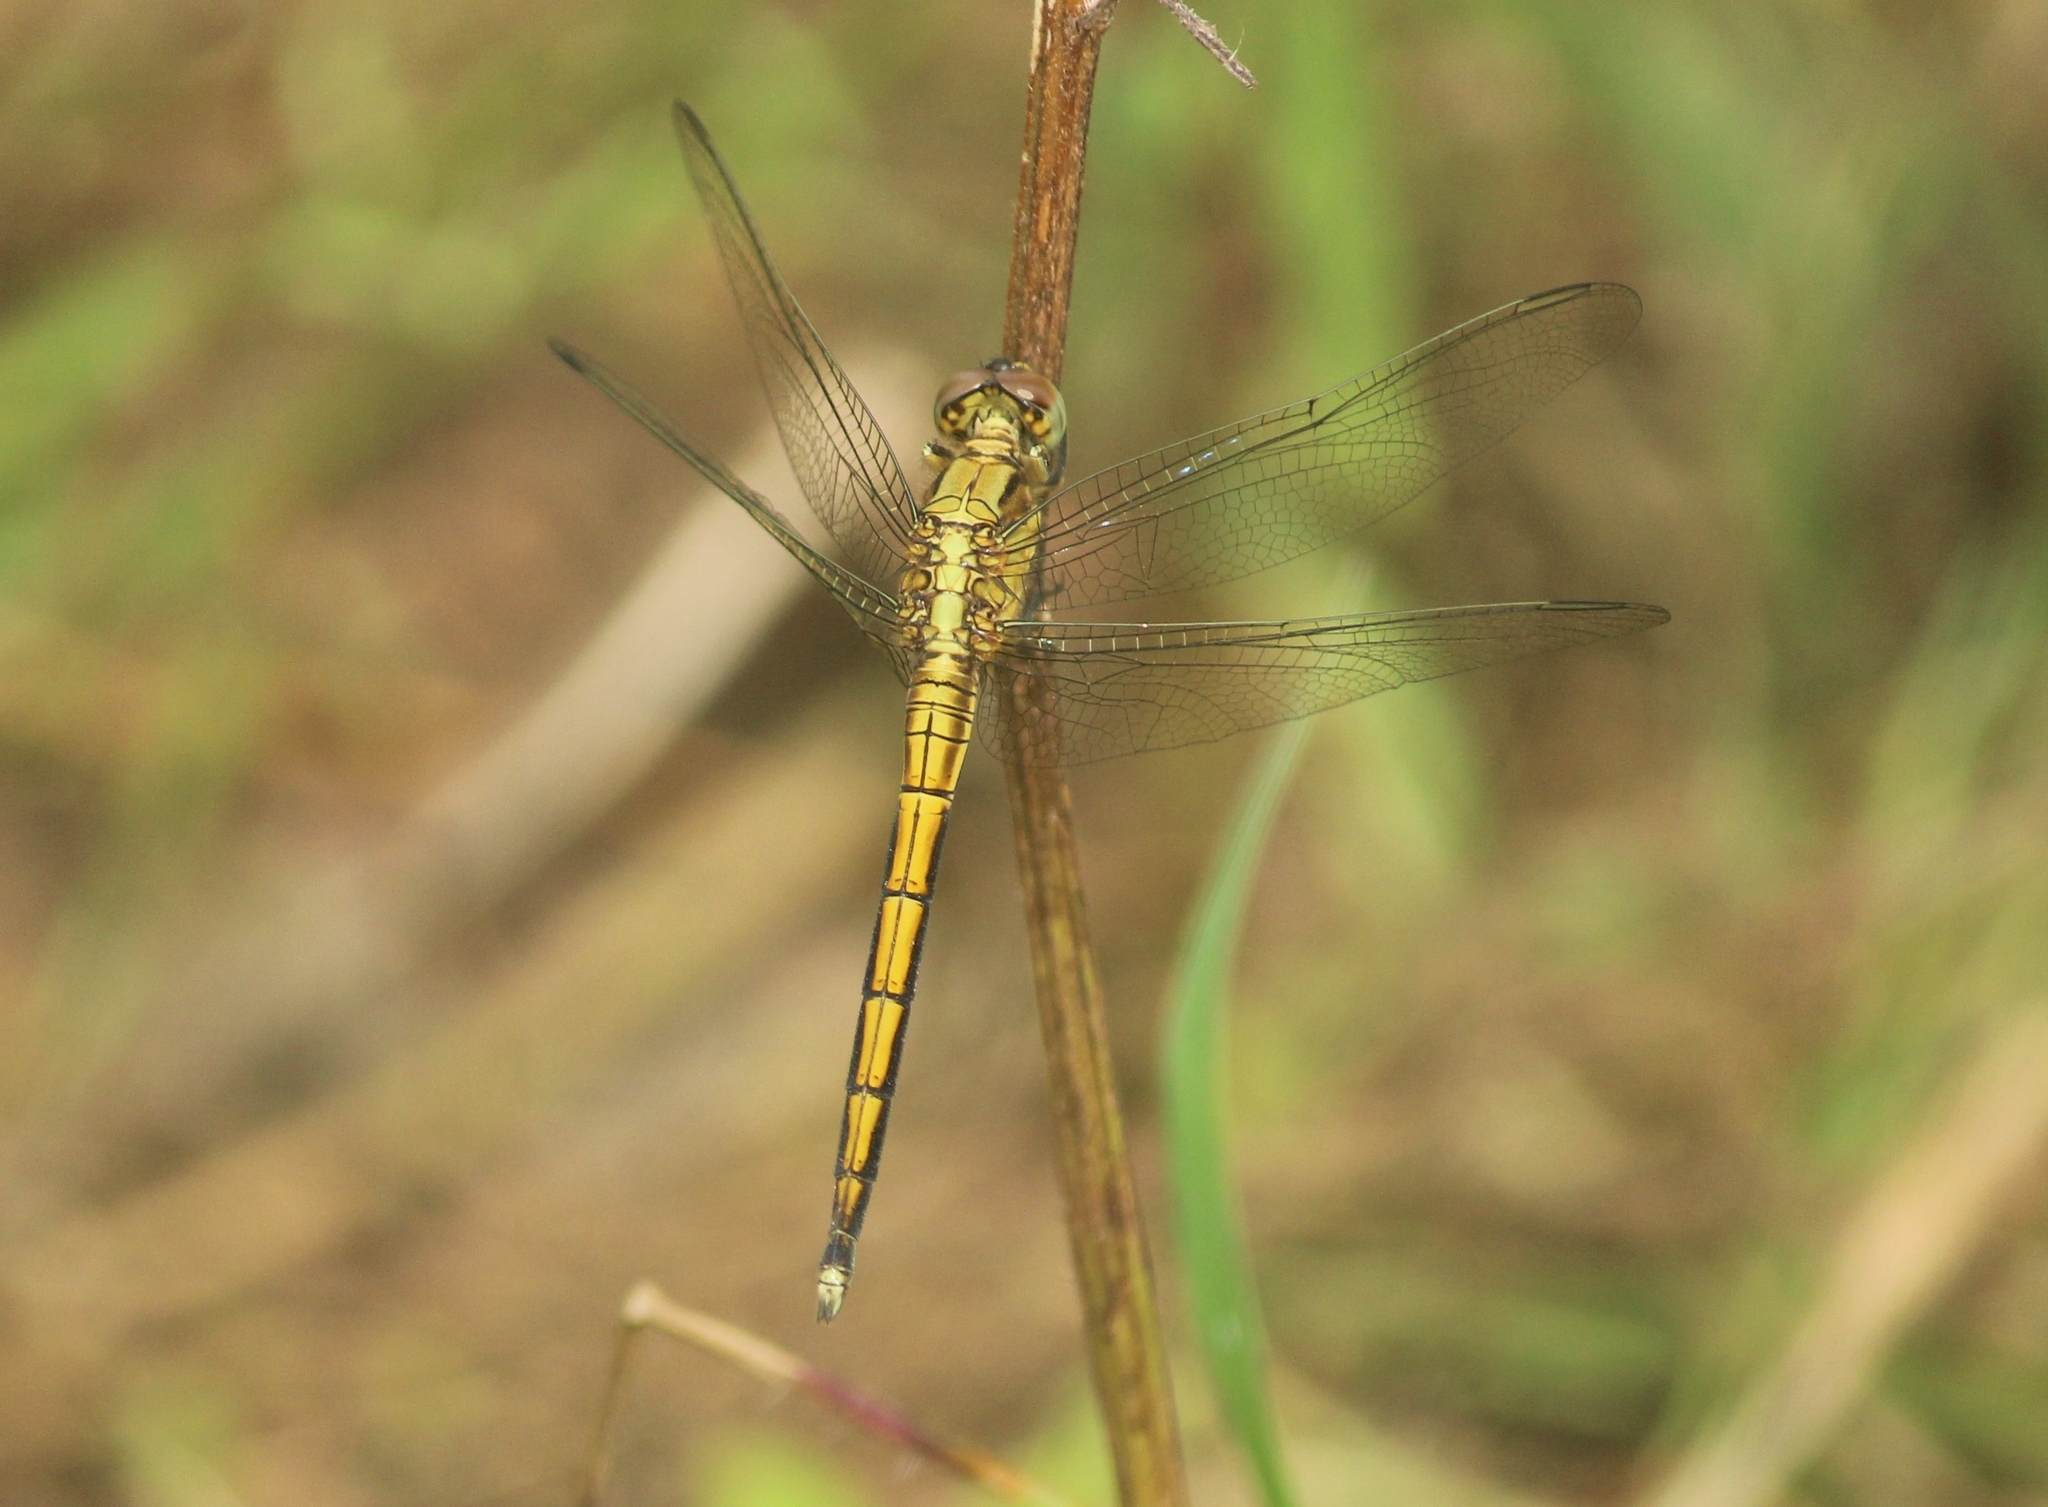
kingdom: Animalia
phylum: Arthropoda
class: Insecta
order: Odonata
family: Libellulidae
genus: Orthetrum
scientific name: Orthetrum luzonicum
